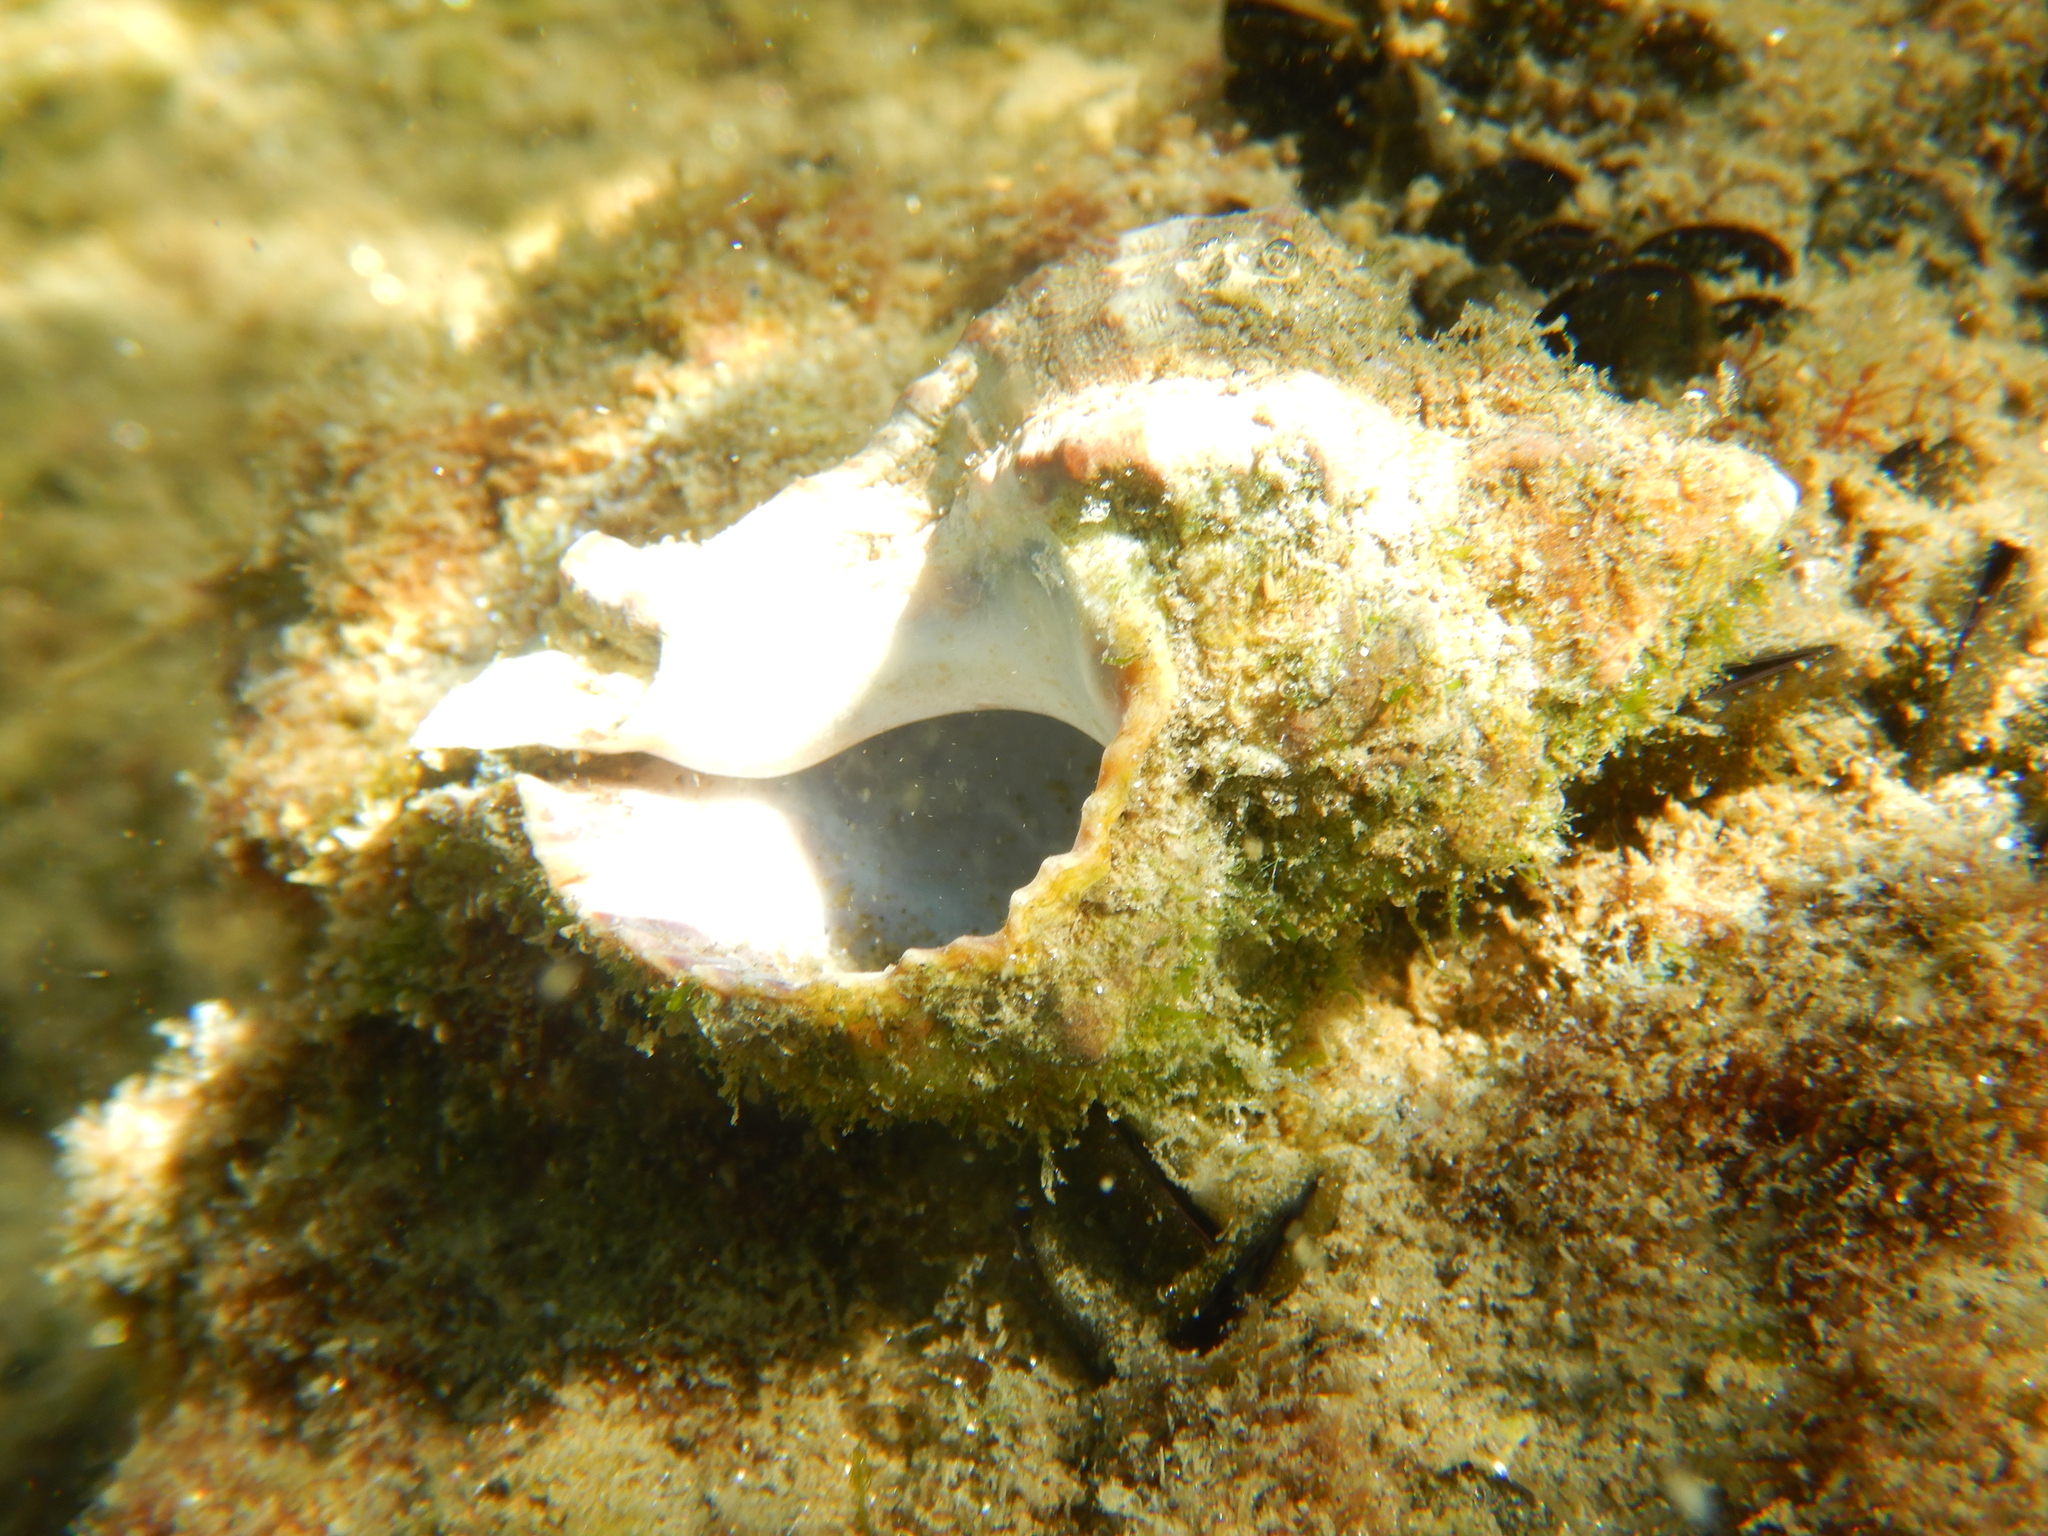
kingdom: Animalia
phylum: Mollusca
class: Gastropoda
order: Neogastropoda
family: Muricidae
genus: Hexaplex
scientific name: Hexaplex trunculus
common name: Banded dye-murex
